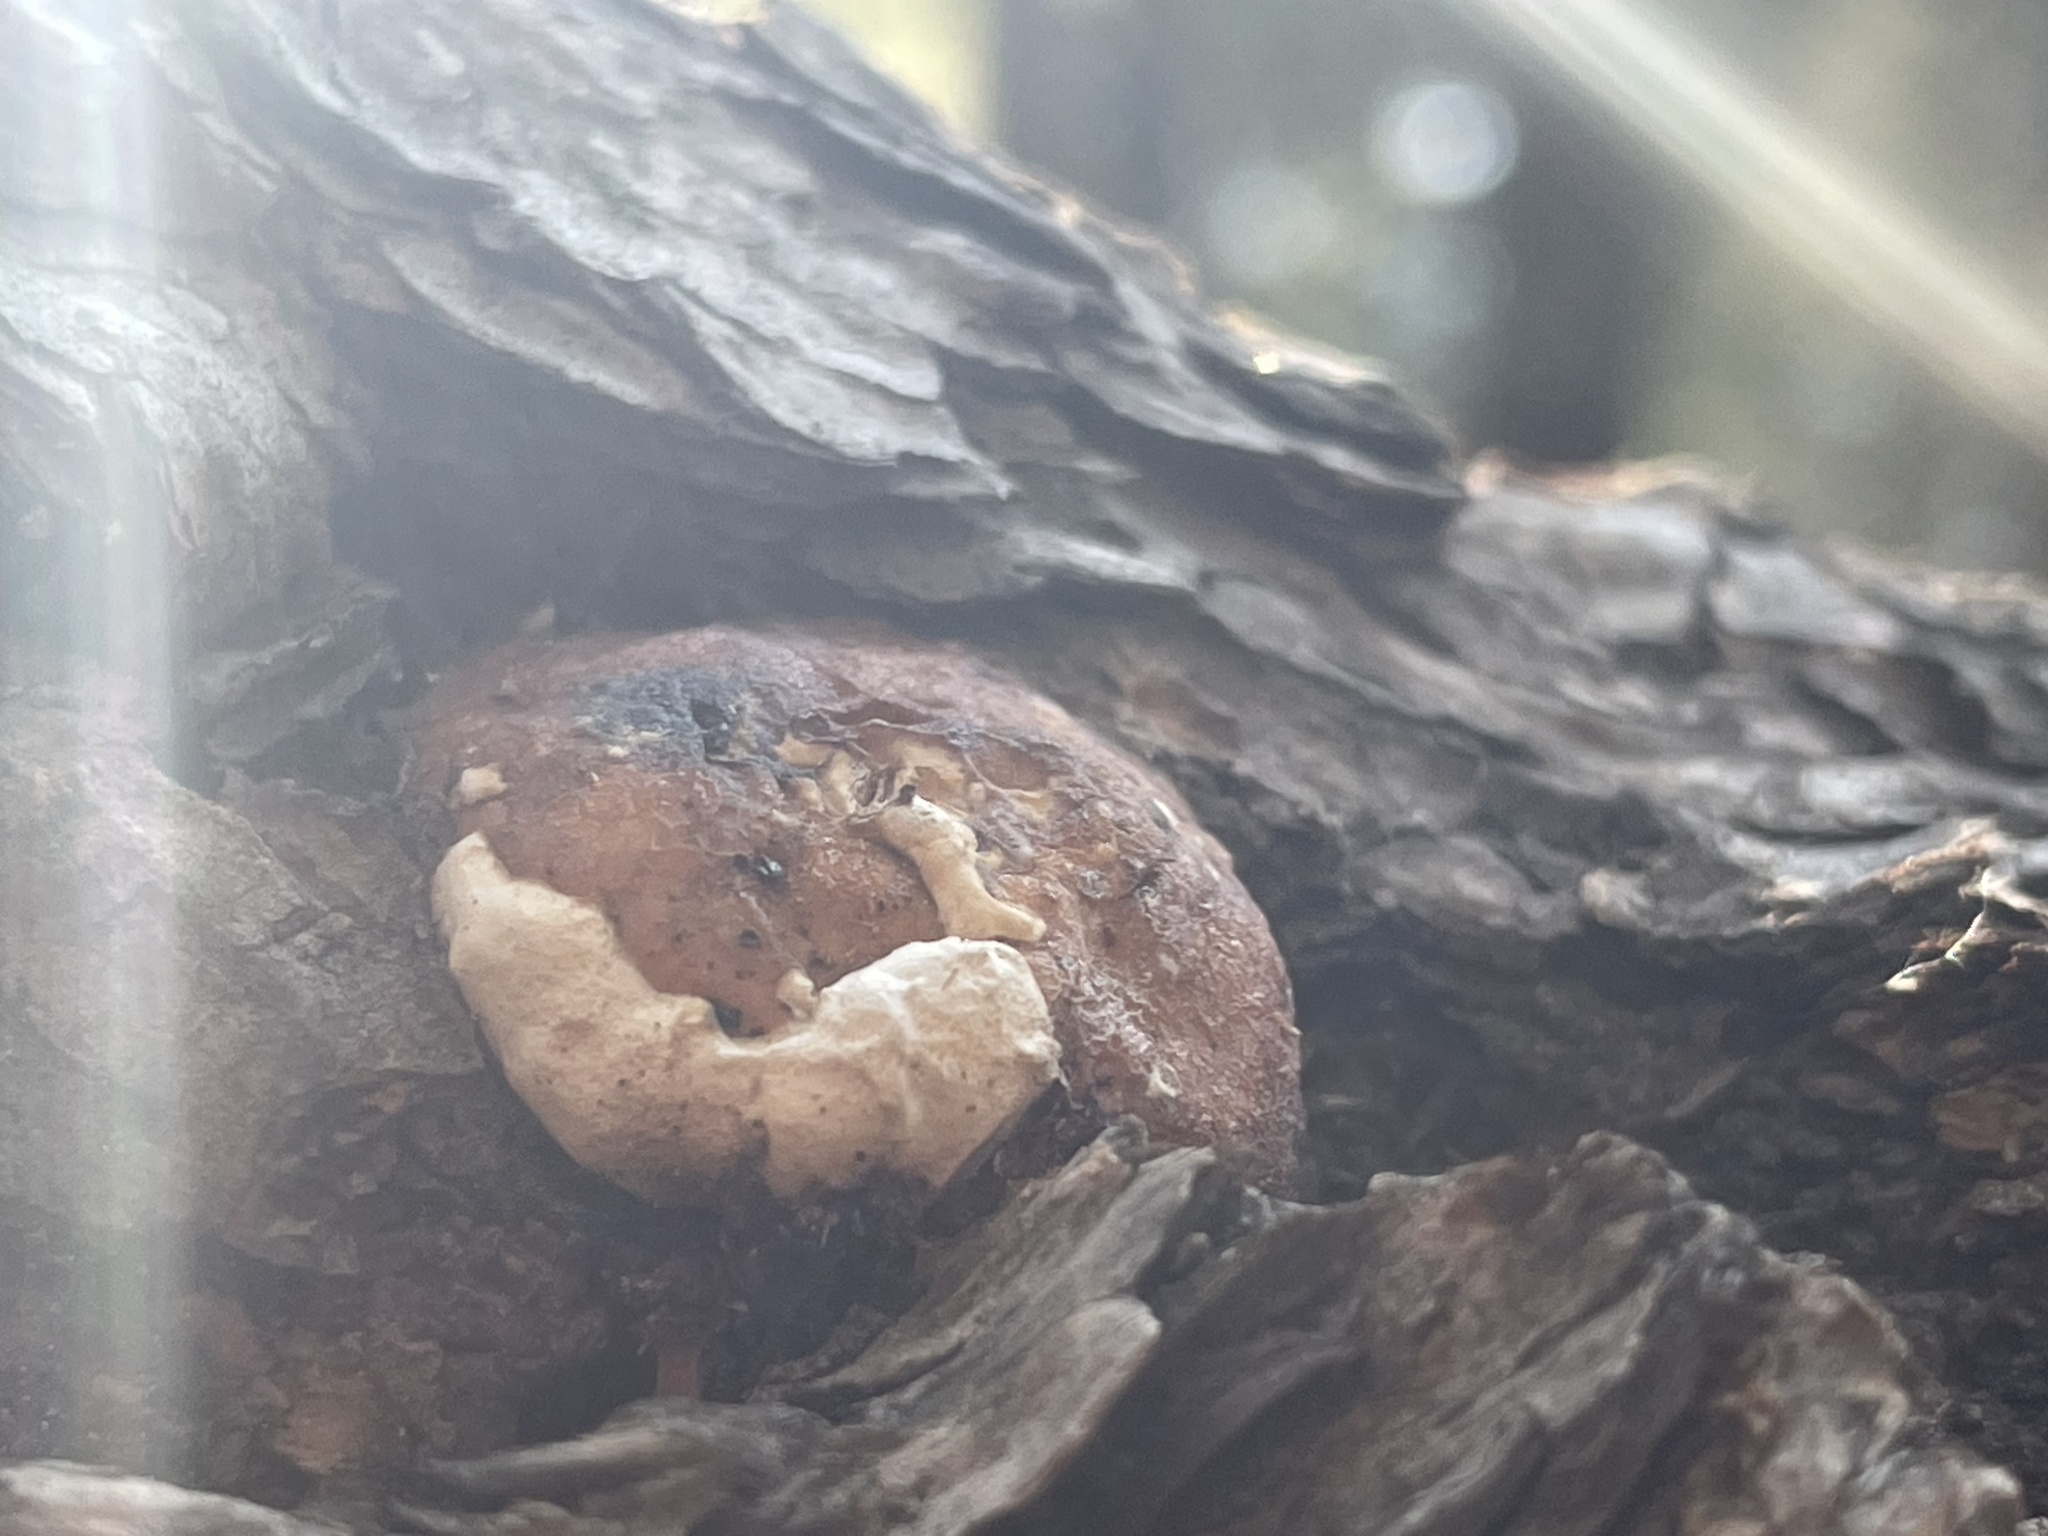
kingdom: Fungi
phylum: Basidiomycota
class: Agaricomycetes
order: Polyporales
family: Fomitopsidaceae
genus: Fomitopsis
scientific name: Fomitopsis schrenkii
